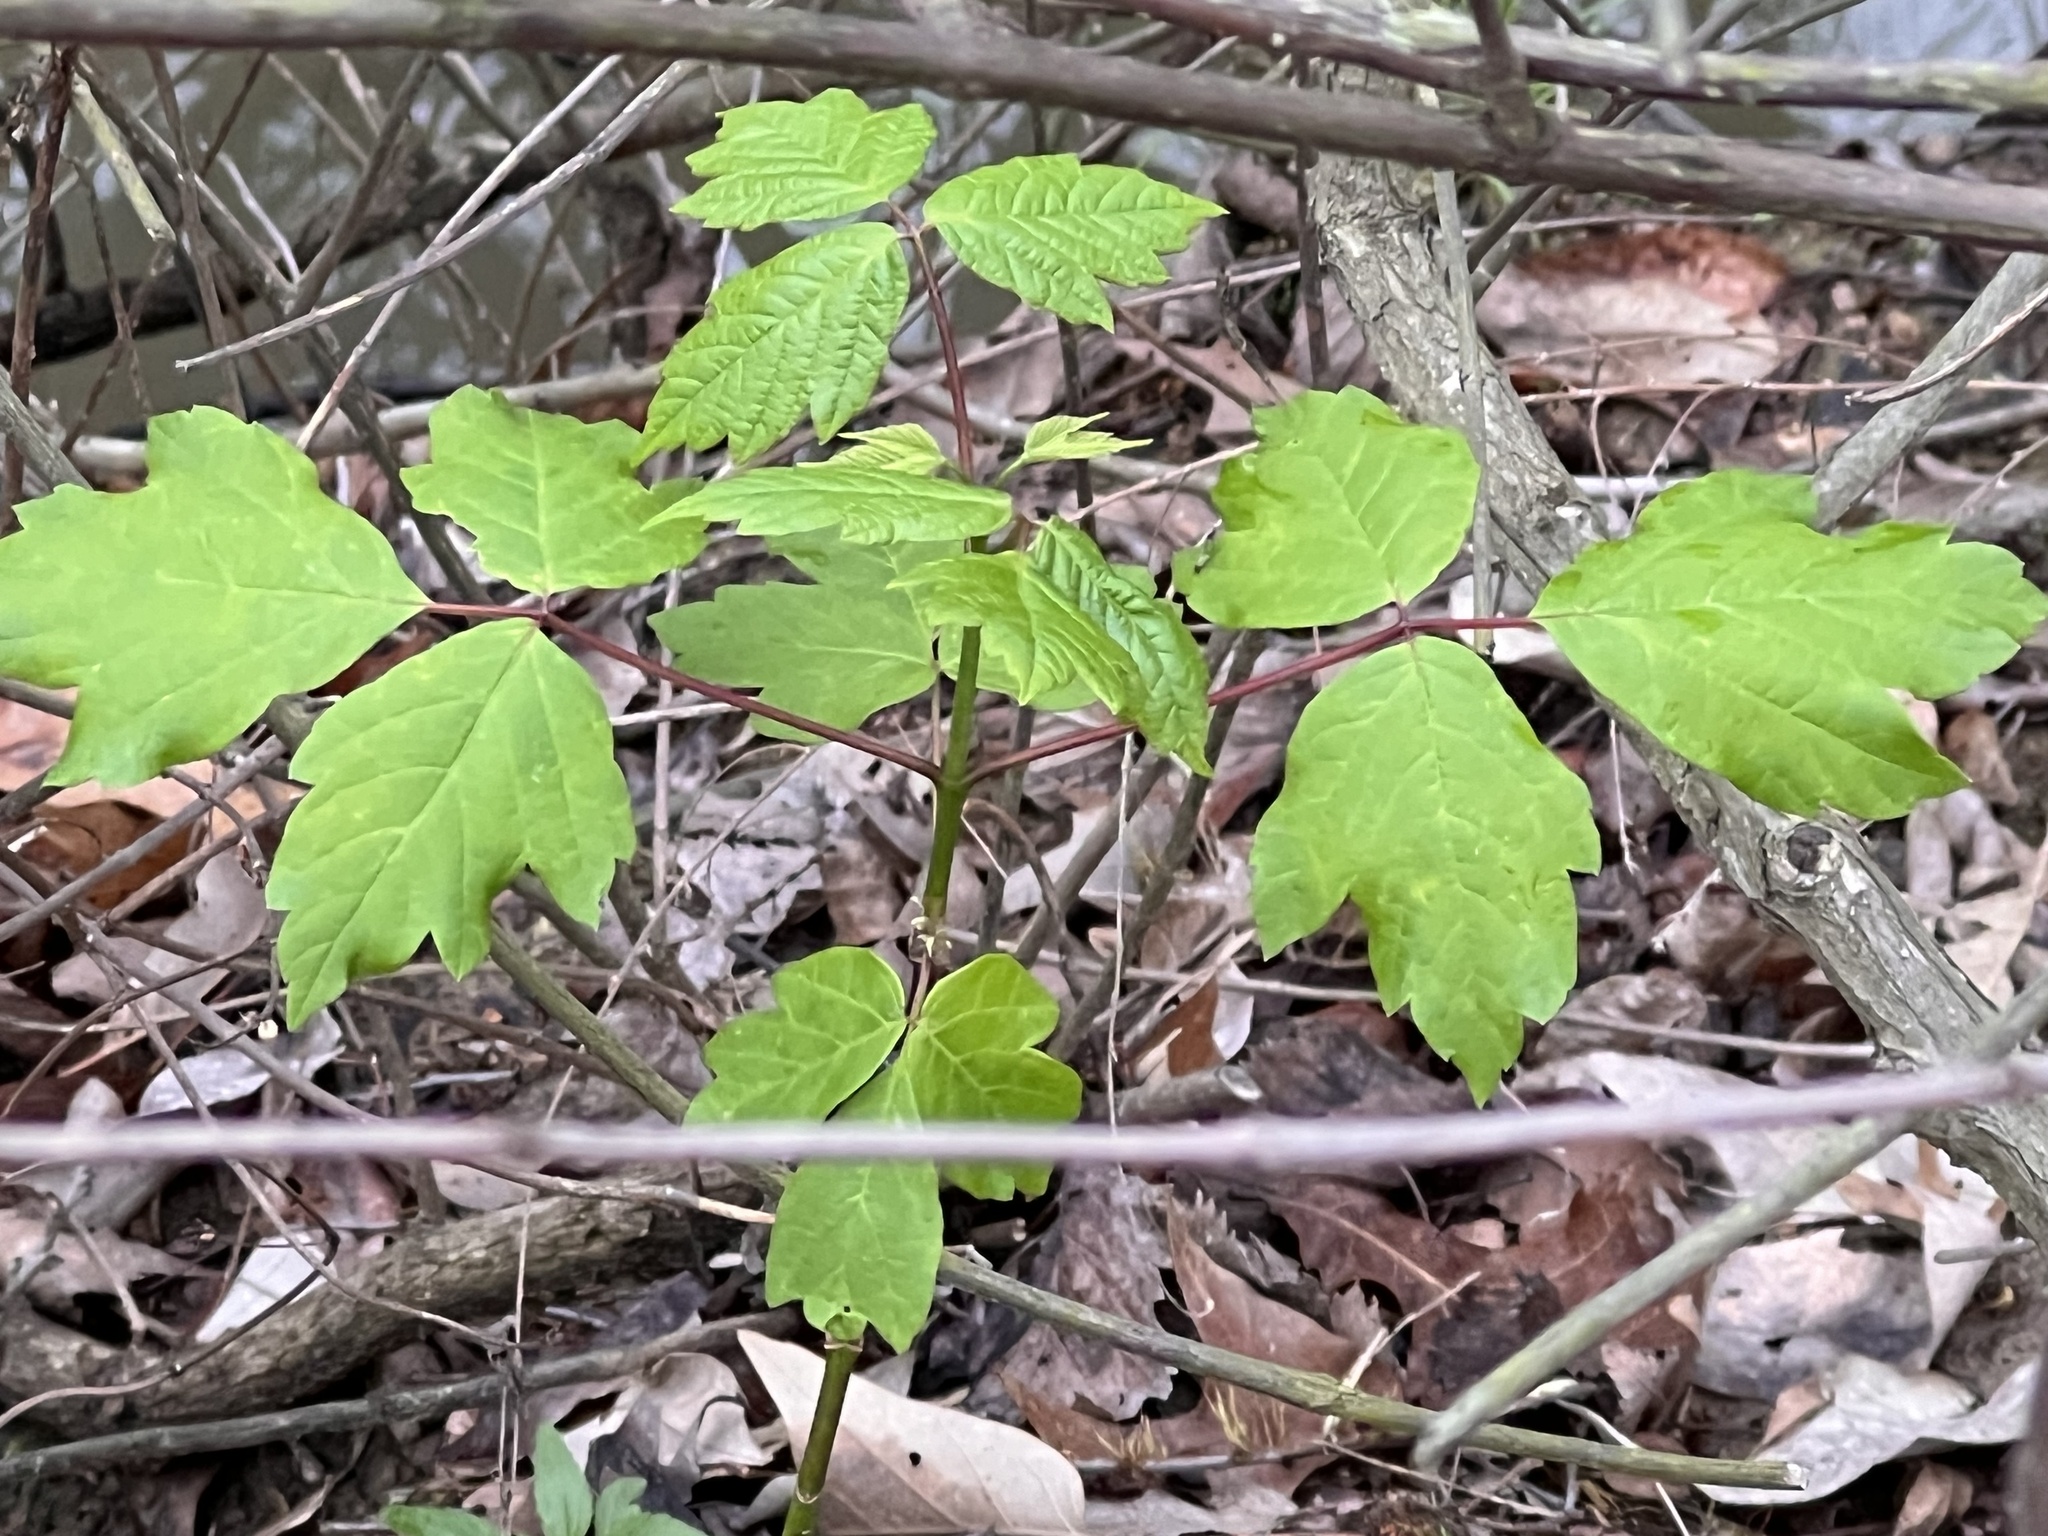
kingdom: Plantae
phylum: Tracheophyta
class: Magnoliopsida
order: Sapindales
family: Sapindaceae
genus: Acer
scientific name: Acer negundo
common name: Ashleaf maple
